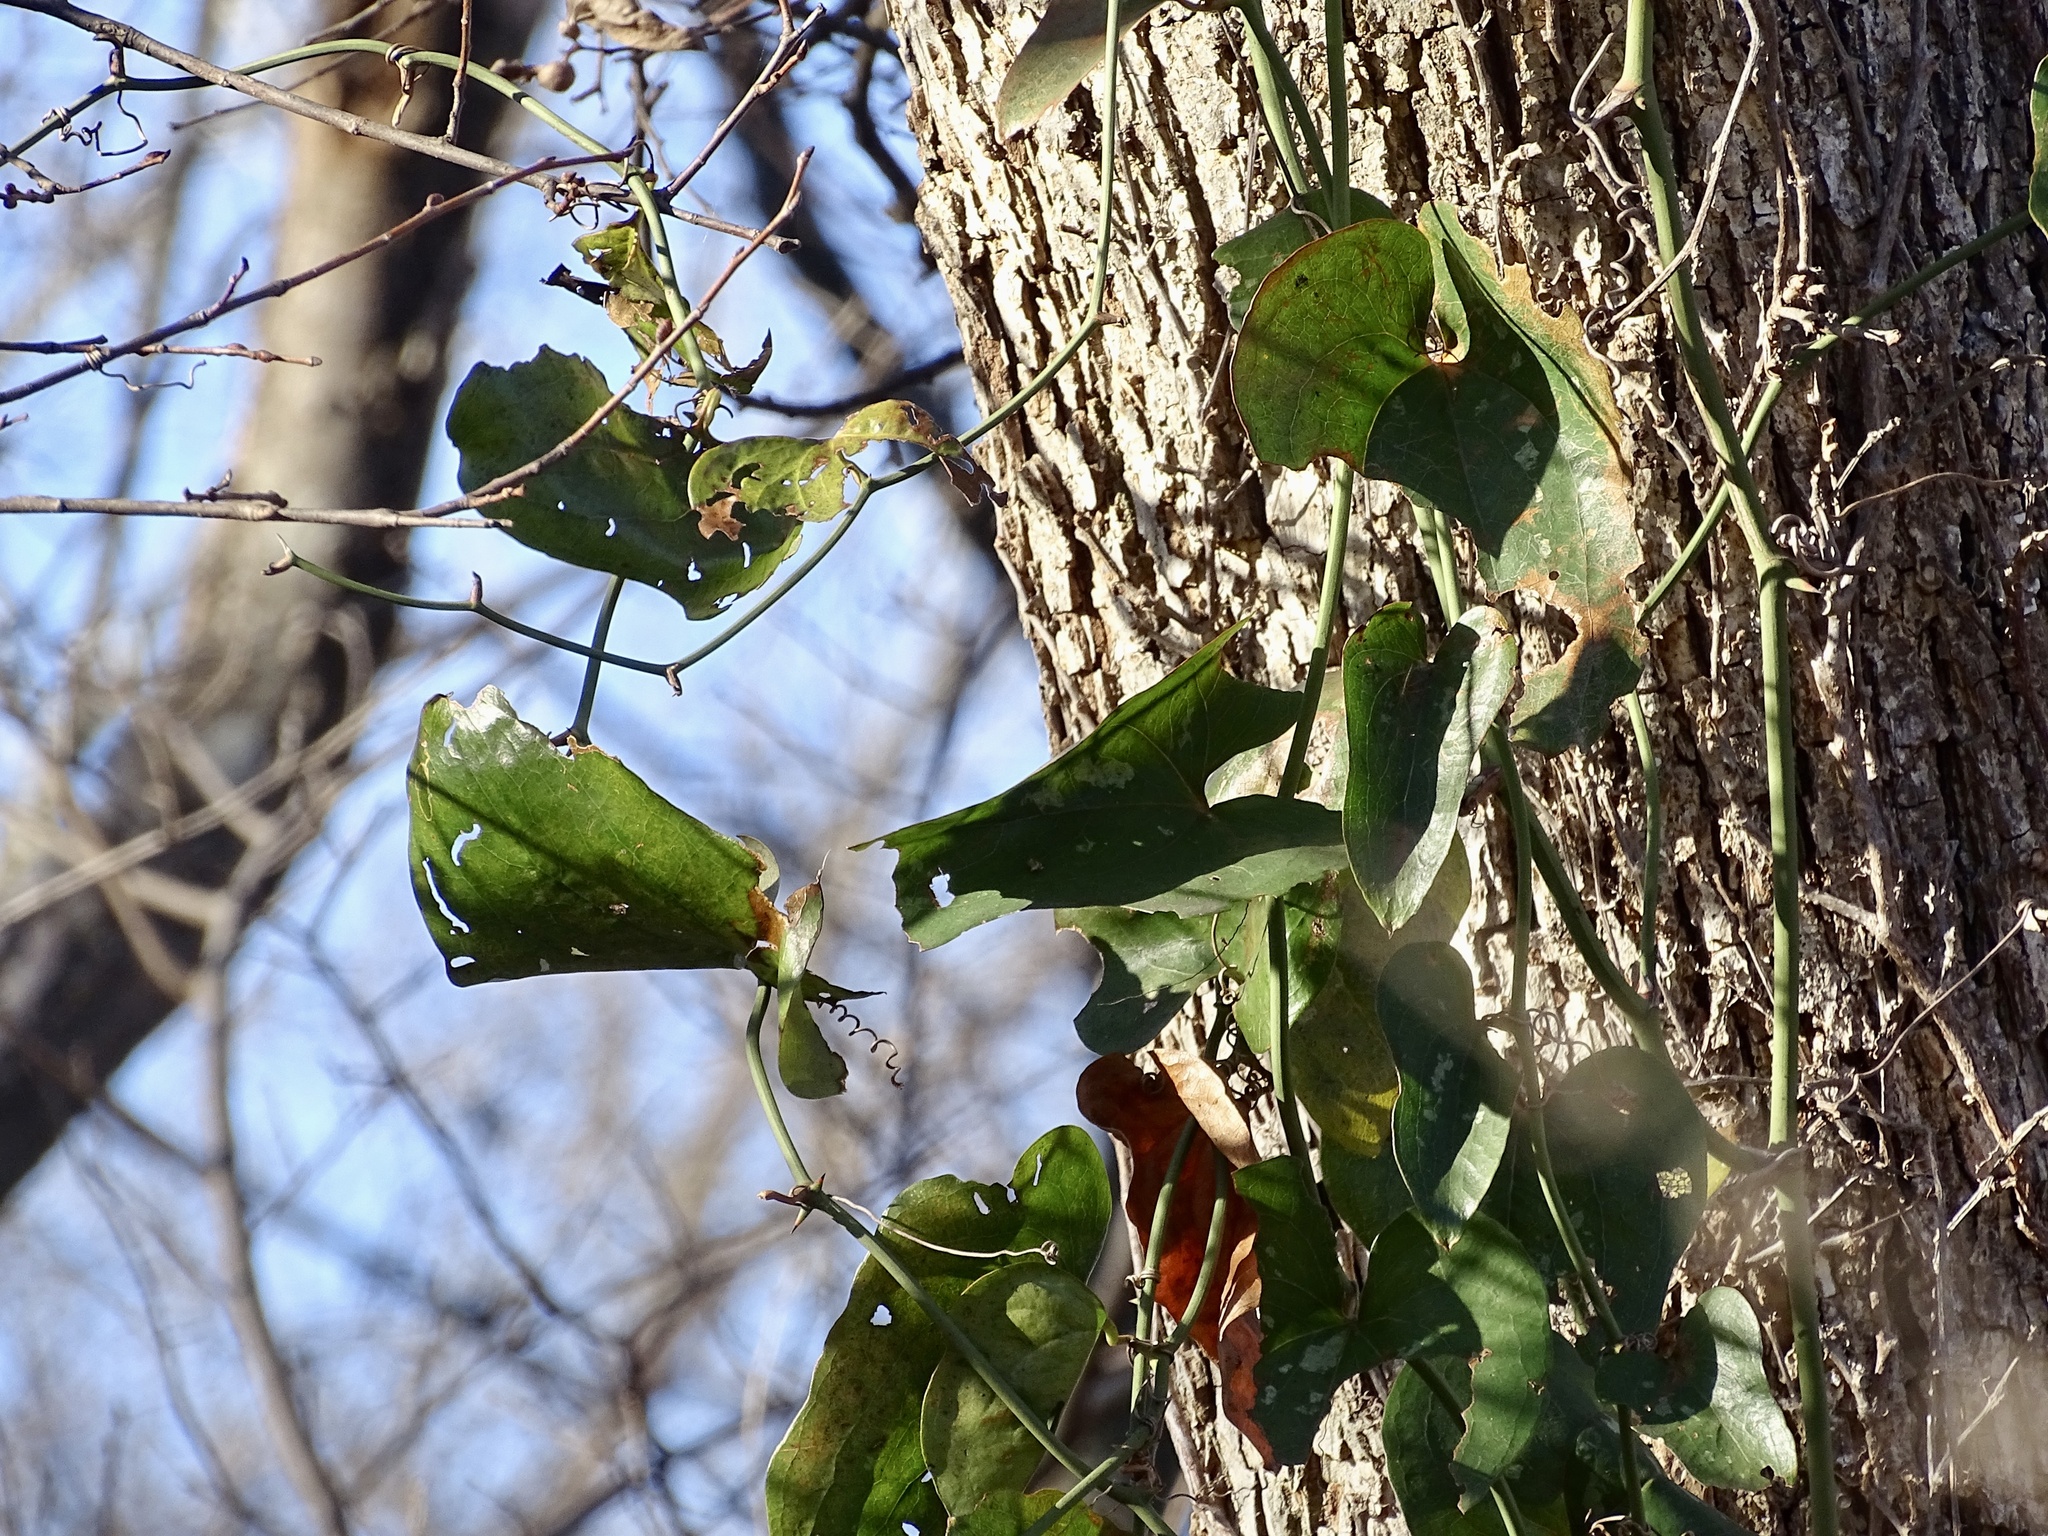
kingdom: Plantae
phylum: Tracheophyta
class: Liliopsida
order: Liliales
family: Smilacaceae
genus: Smilax
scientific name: Smilax bona-nox
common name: Catbrier
